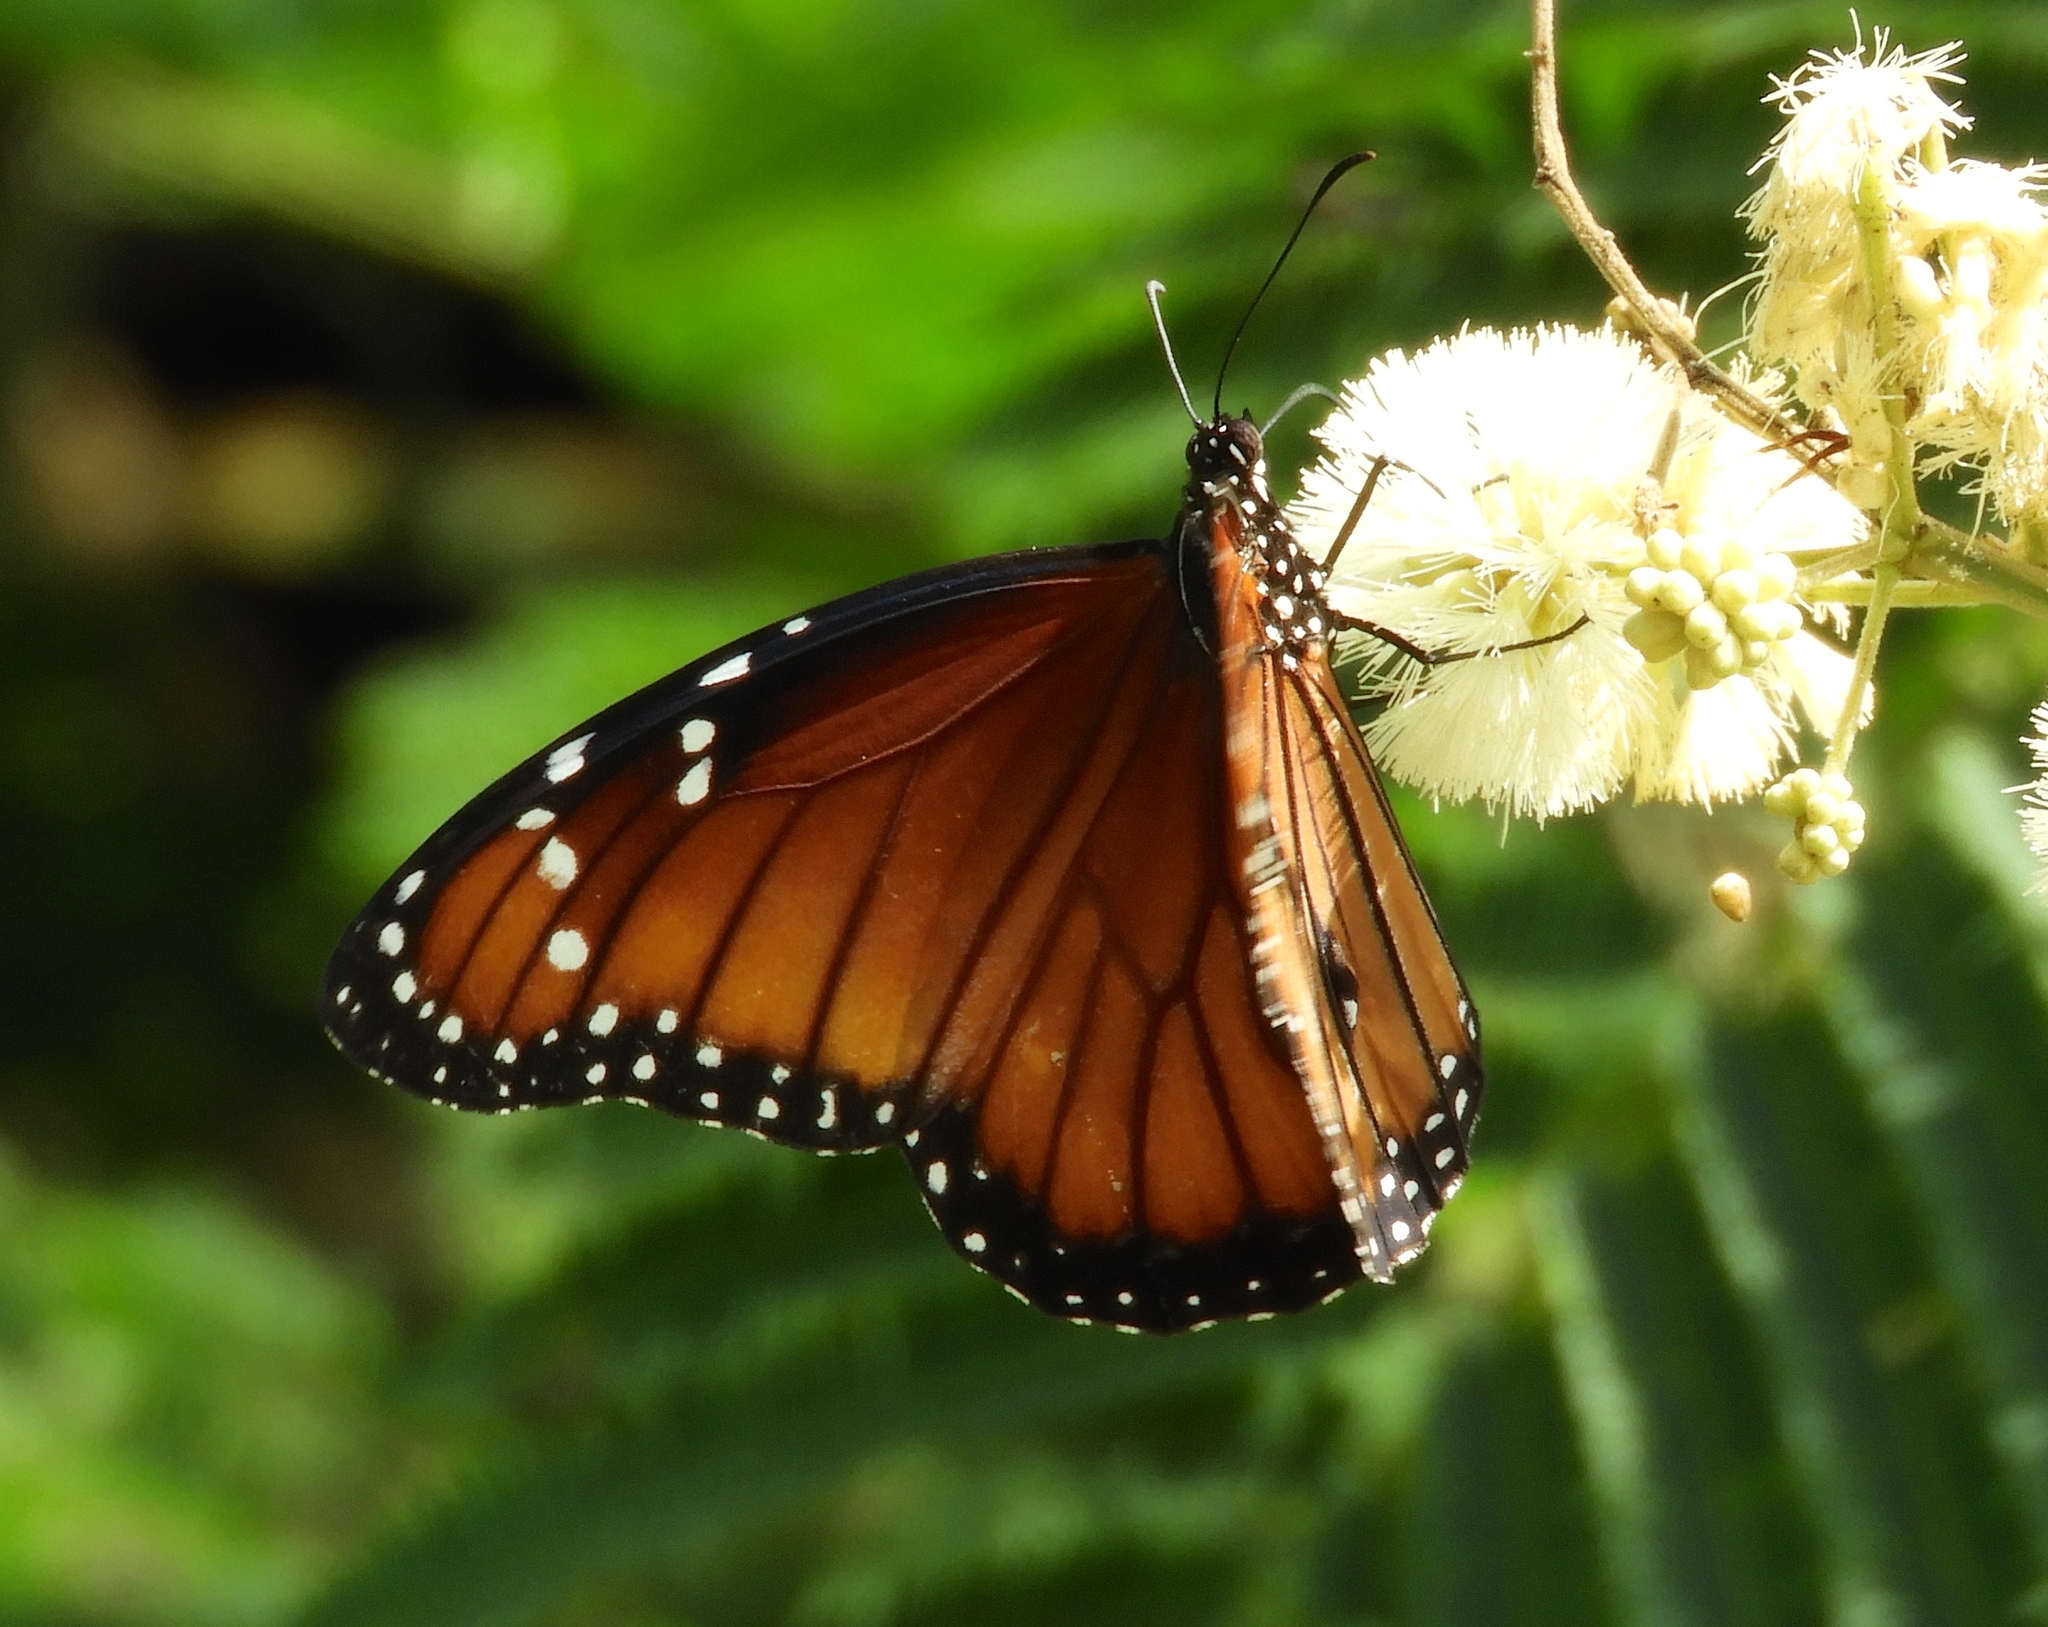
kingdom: Animalia
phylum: Arthropoda
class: Insecta
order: Lepidoptera
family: Nymphalidae
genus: Danaus
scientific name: Danaus eresimus
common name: Soldier
